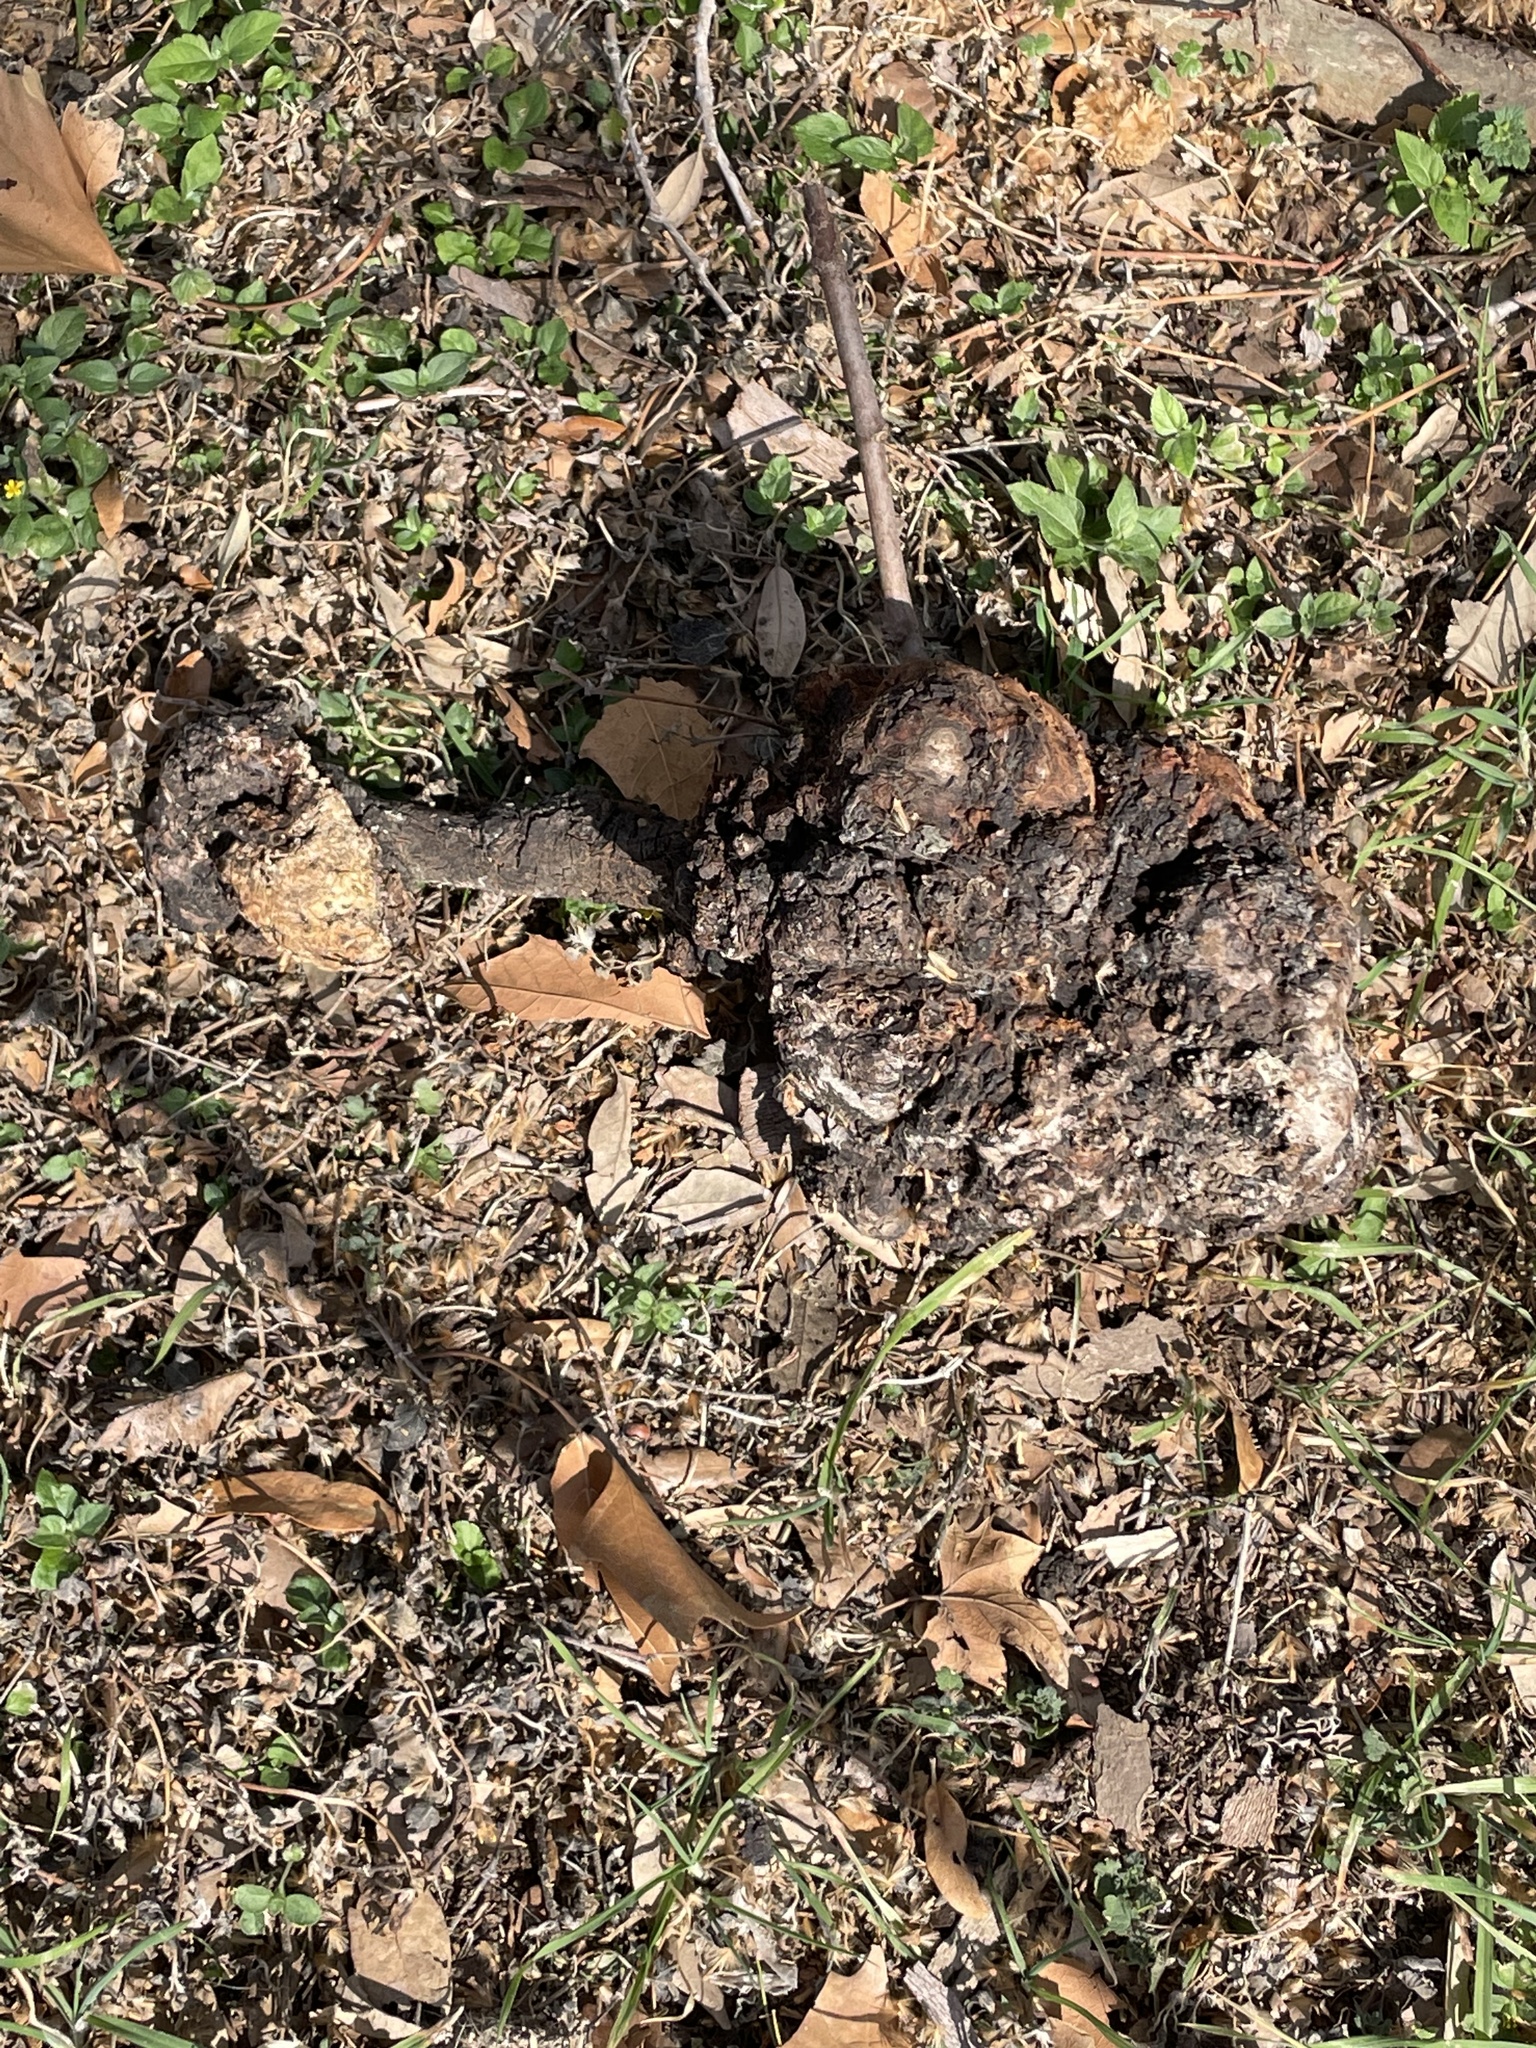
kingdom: Bacteria
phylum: Proteobacteria
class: Alphaproteobacteria
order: Rhizobiales
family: Rhizobiaceae
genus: Rhizobium
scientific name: Rhizobium Agrobacterium radiobacter
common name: Bacterial crown gall
